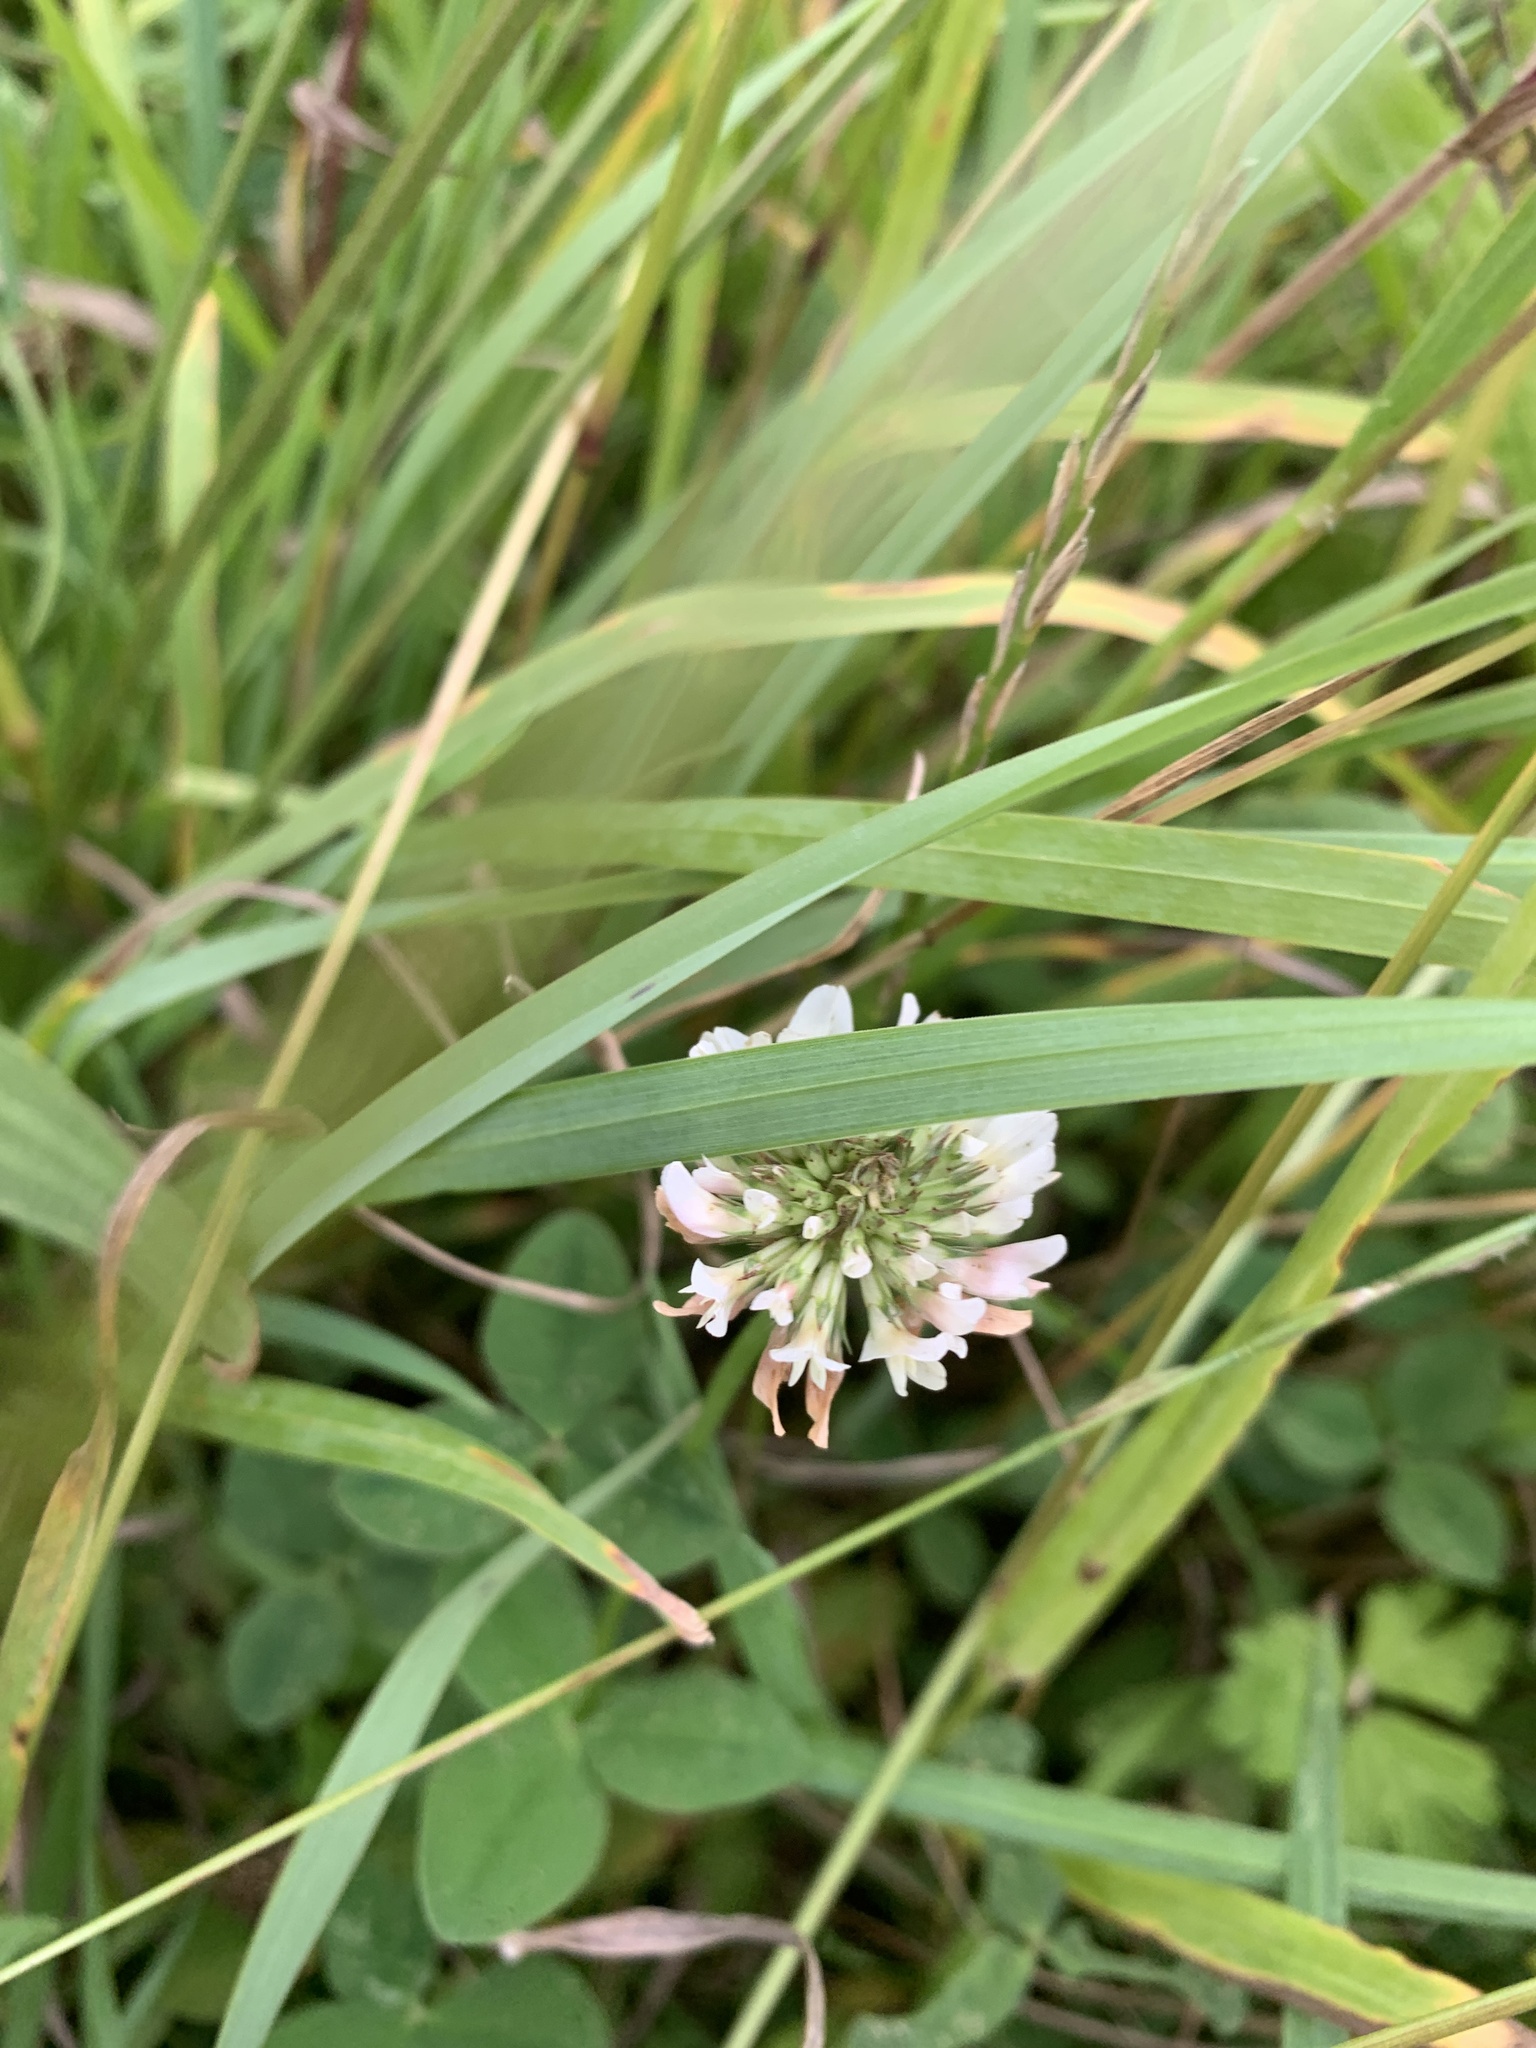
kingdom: Plantae
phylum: Tracheophyta
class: Magnoliopsida
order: Fabales
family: Fabaceae
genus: Trifolium
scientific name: Trifolium repens
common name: White clover
